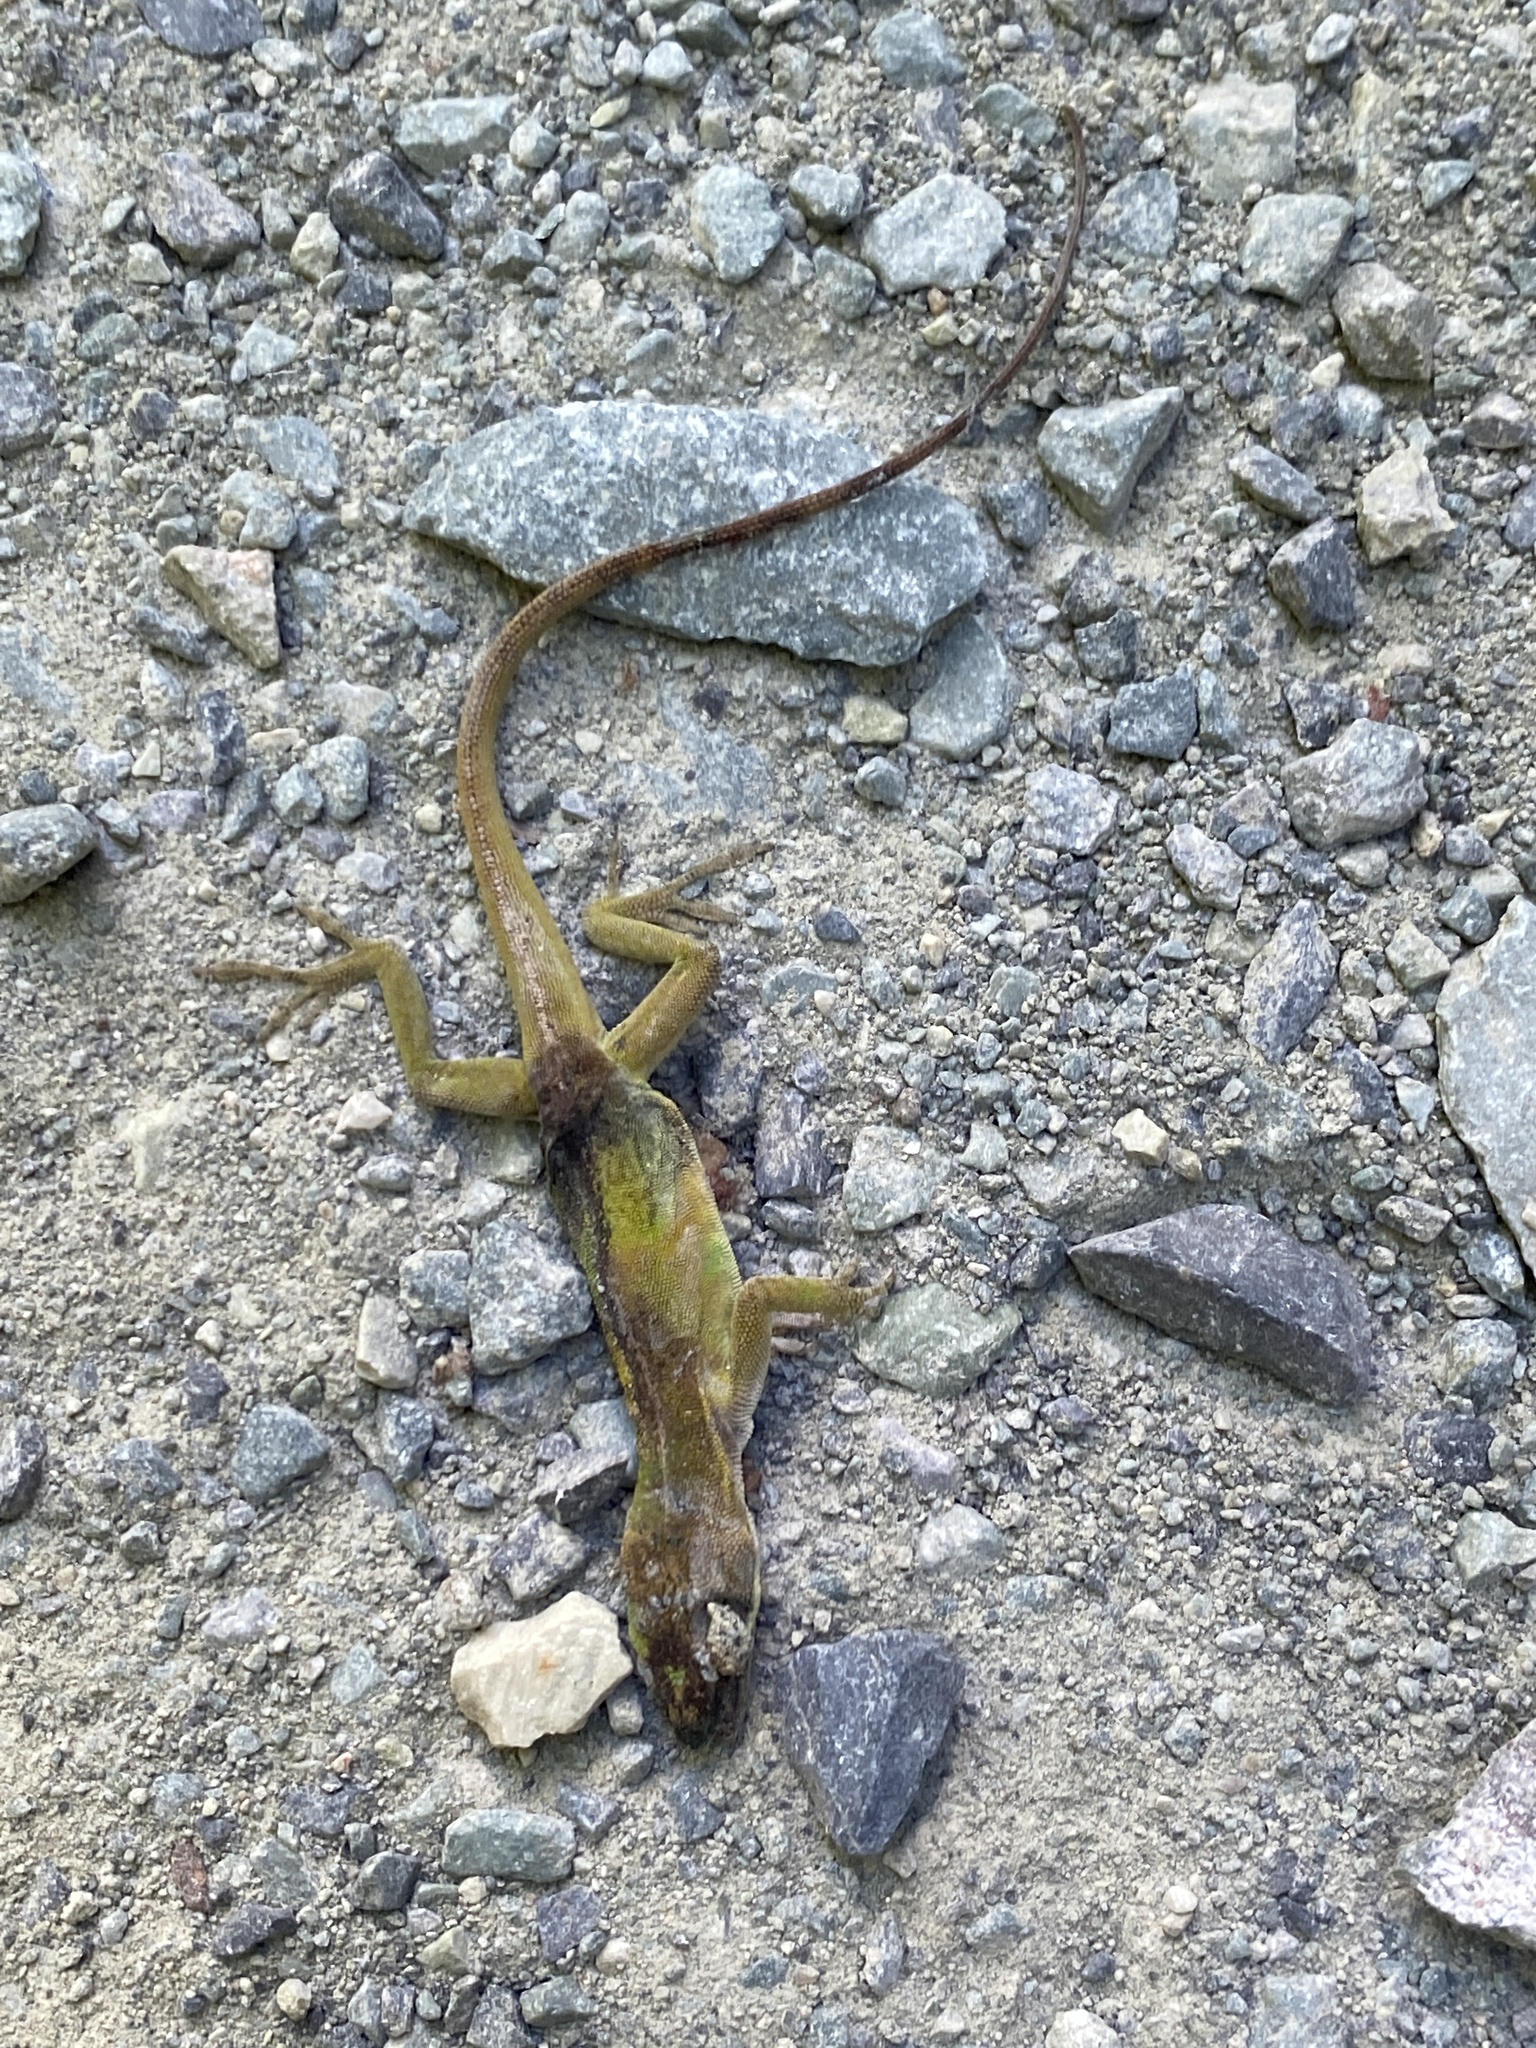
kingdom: Animalia
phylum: Chordata
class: Squamata
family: Dactyloidae
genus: Anolis
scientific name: Anolis carolinensis
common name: Green anole
